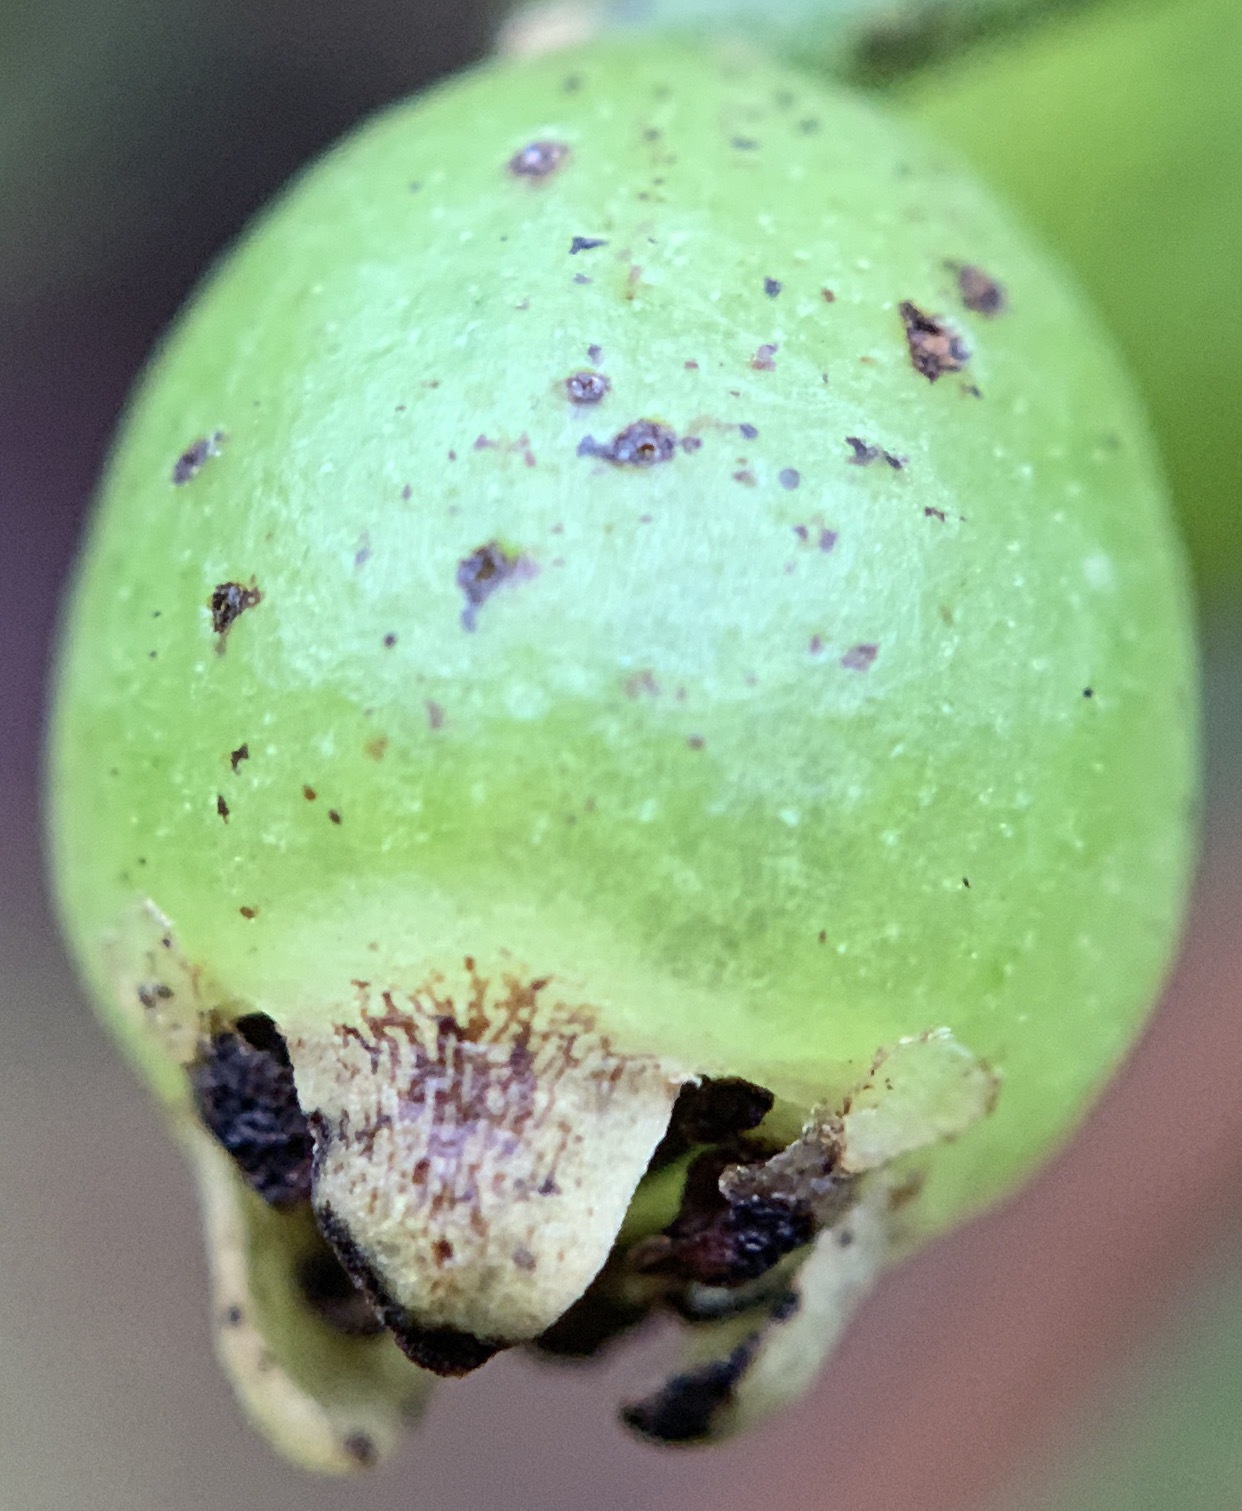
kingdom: Plantae
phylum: Tracheophyta
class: Magnoliopsida
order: Laurales
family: Lauraceae
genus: Cassytha
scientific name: Cassytha filiformis
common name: Dodder-laurel
